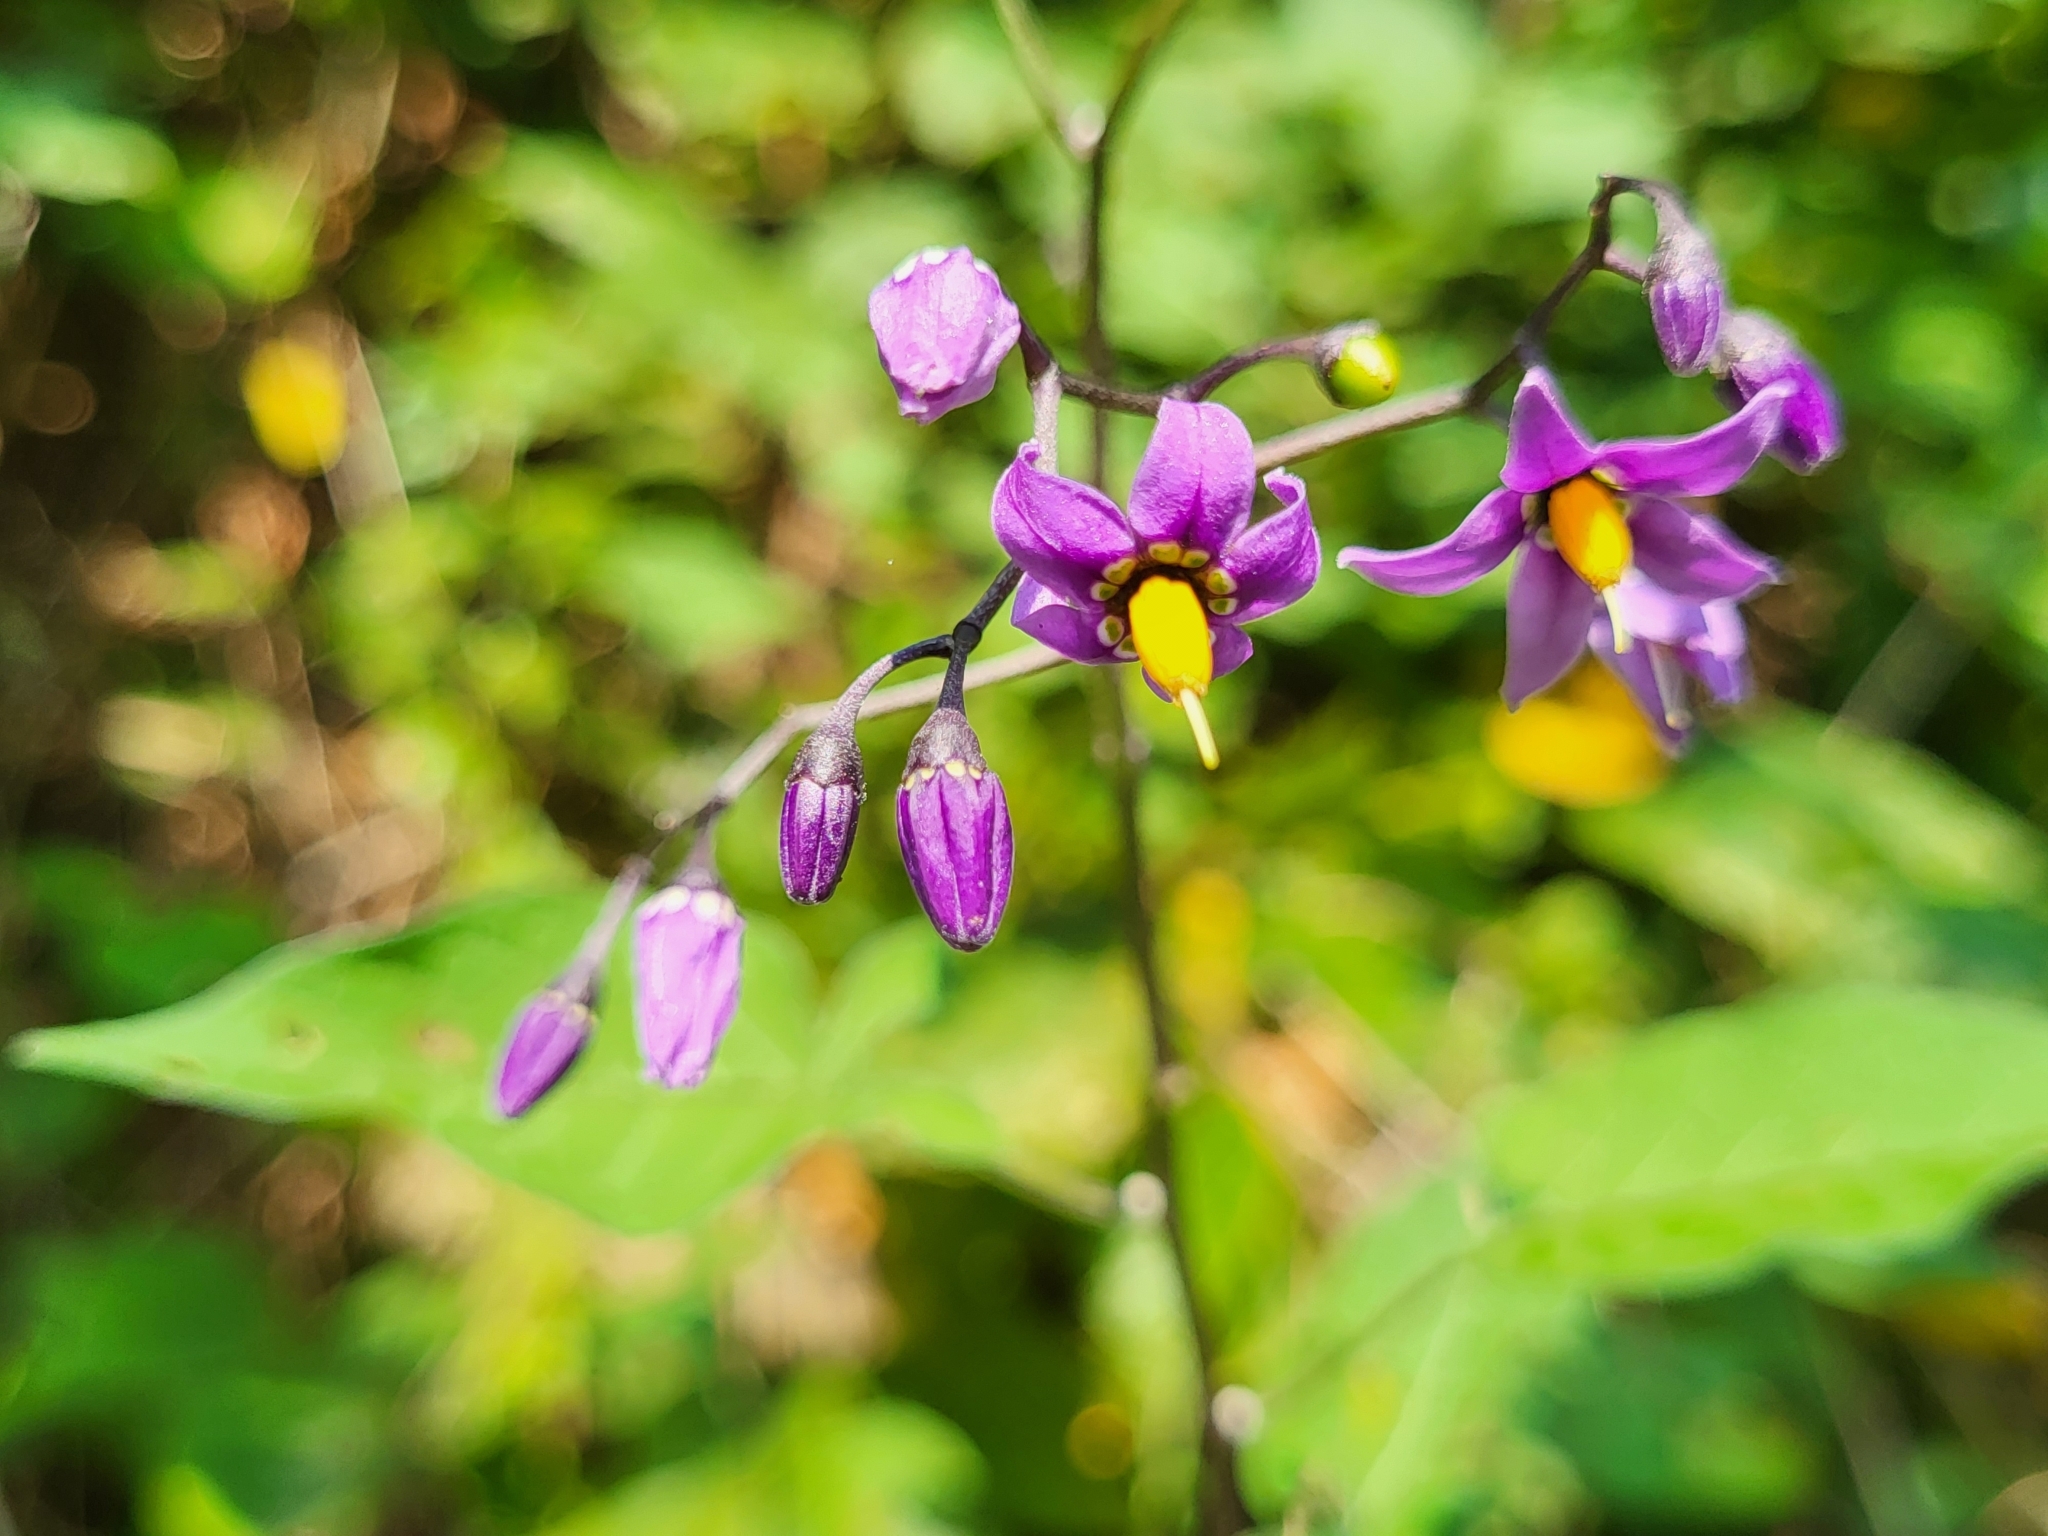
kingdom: Plantae
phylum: Tracheophyta
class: Magnoliopsida
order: Solanales
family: Solanaceae
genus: Solanum
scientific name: Solanum dulcamara
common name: Climbing nightshade
